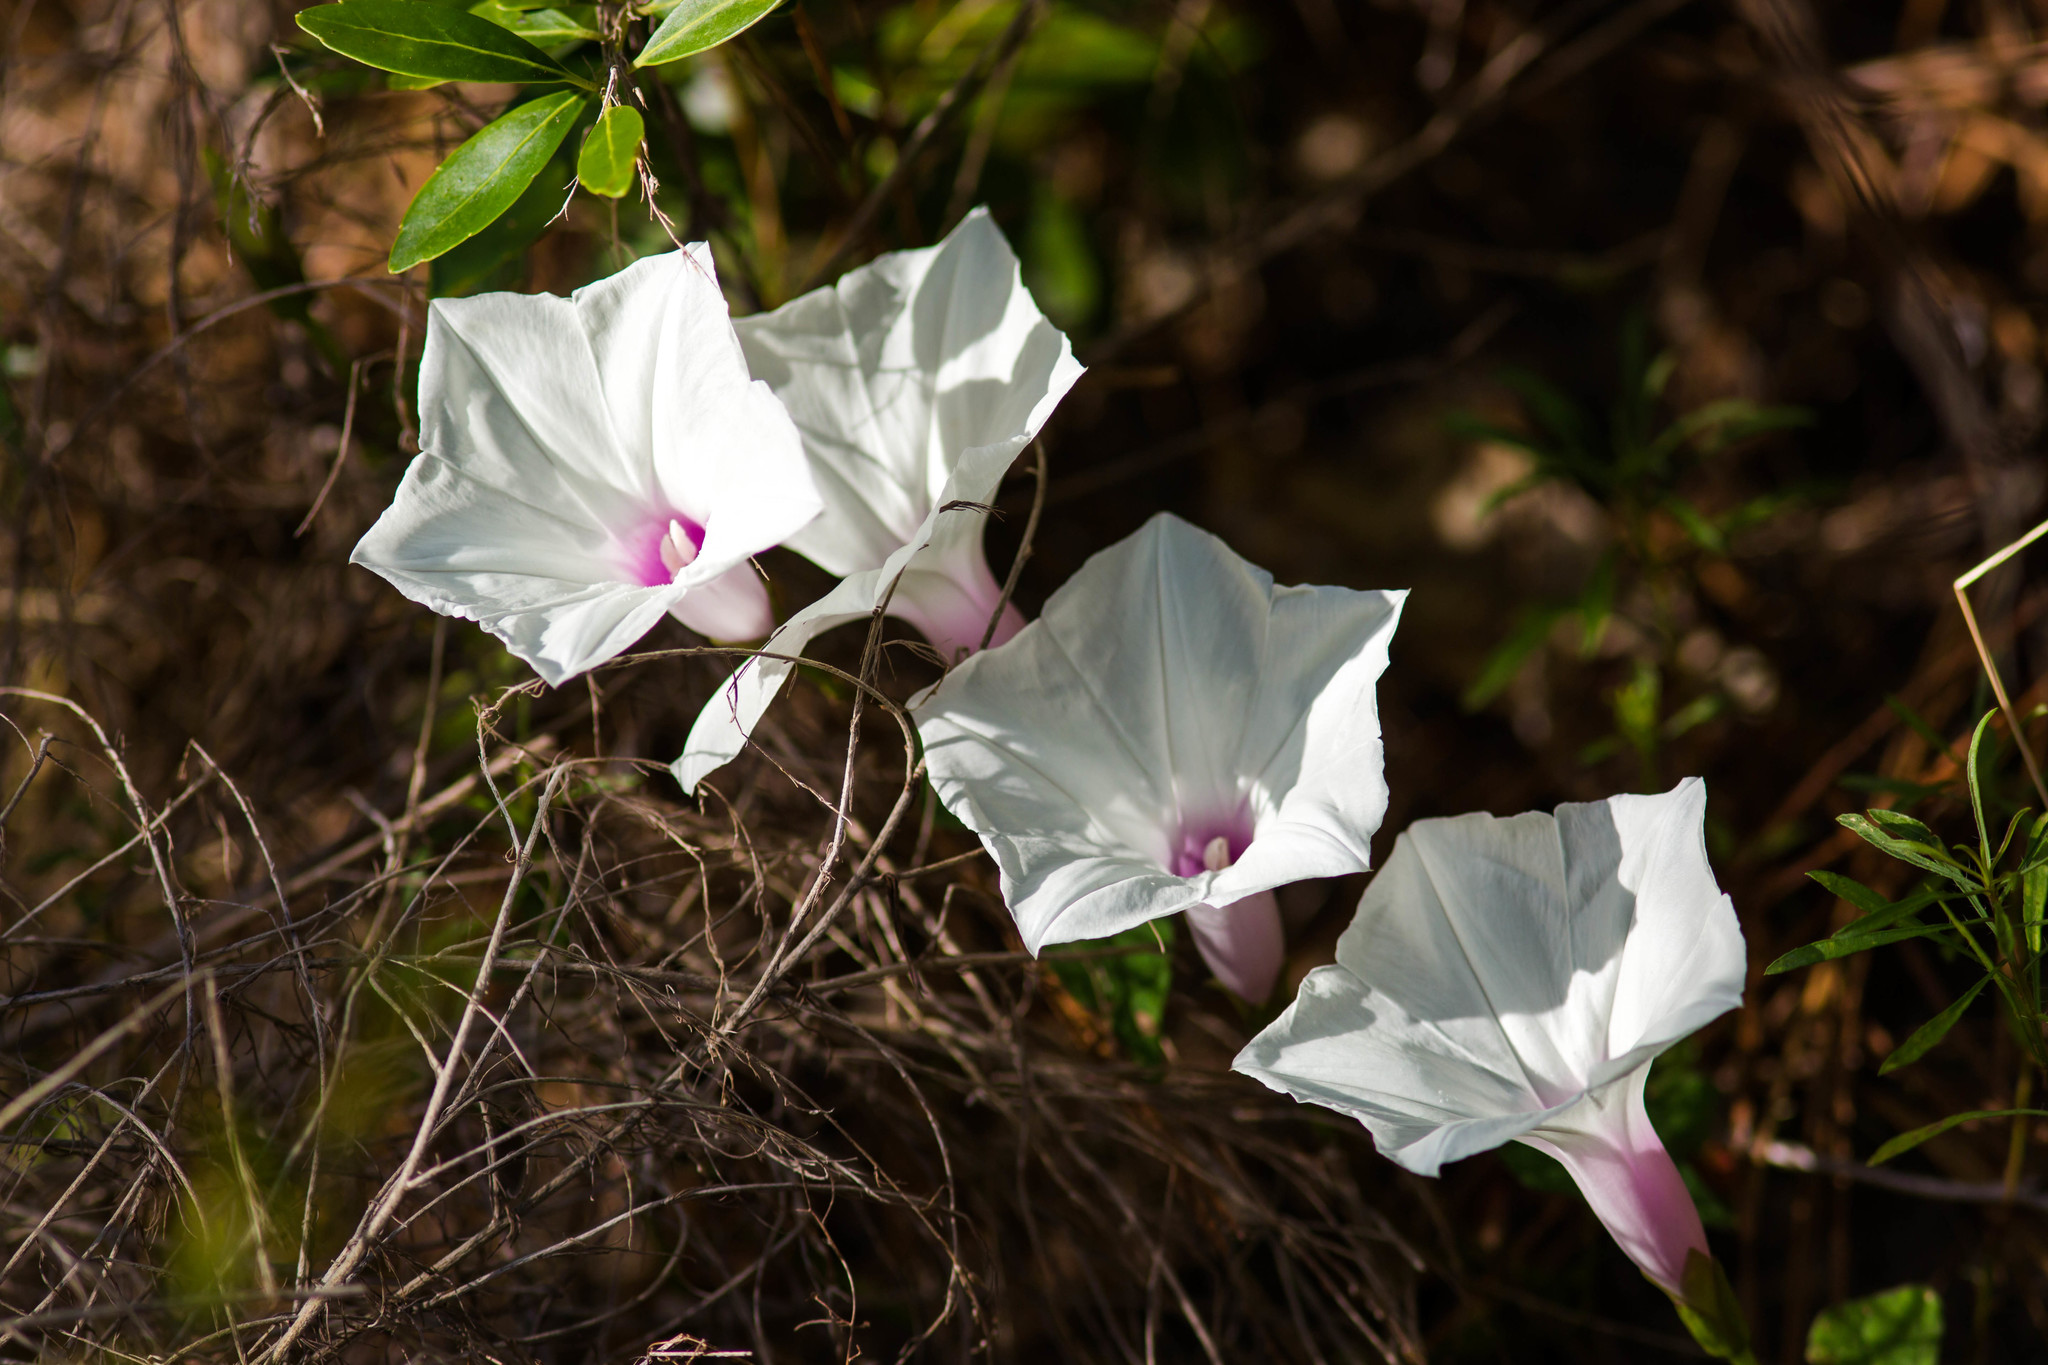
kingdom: Plantae
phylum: Tracheophyta
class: Magnoliopsida
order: Solanales
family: Convolvulaceae
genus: Ipomoea
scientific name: Ipomoea pandurata
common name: Man-of-the-earth
